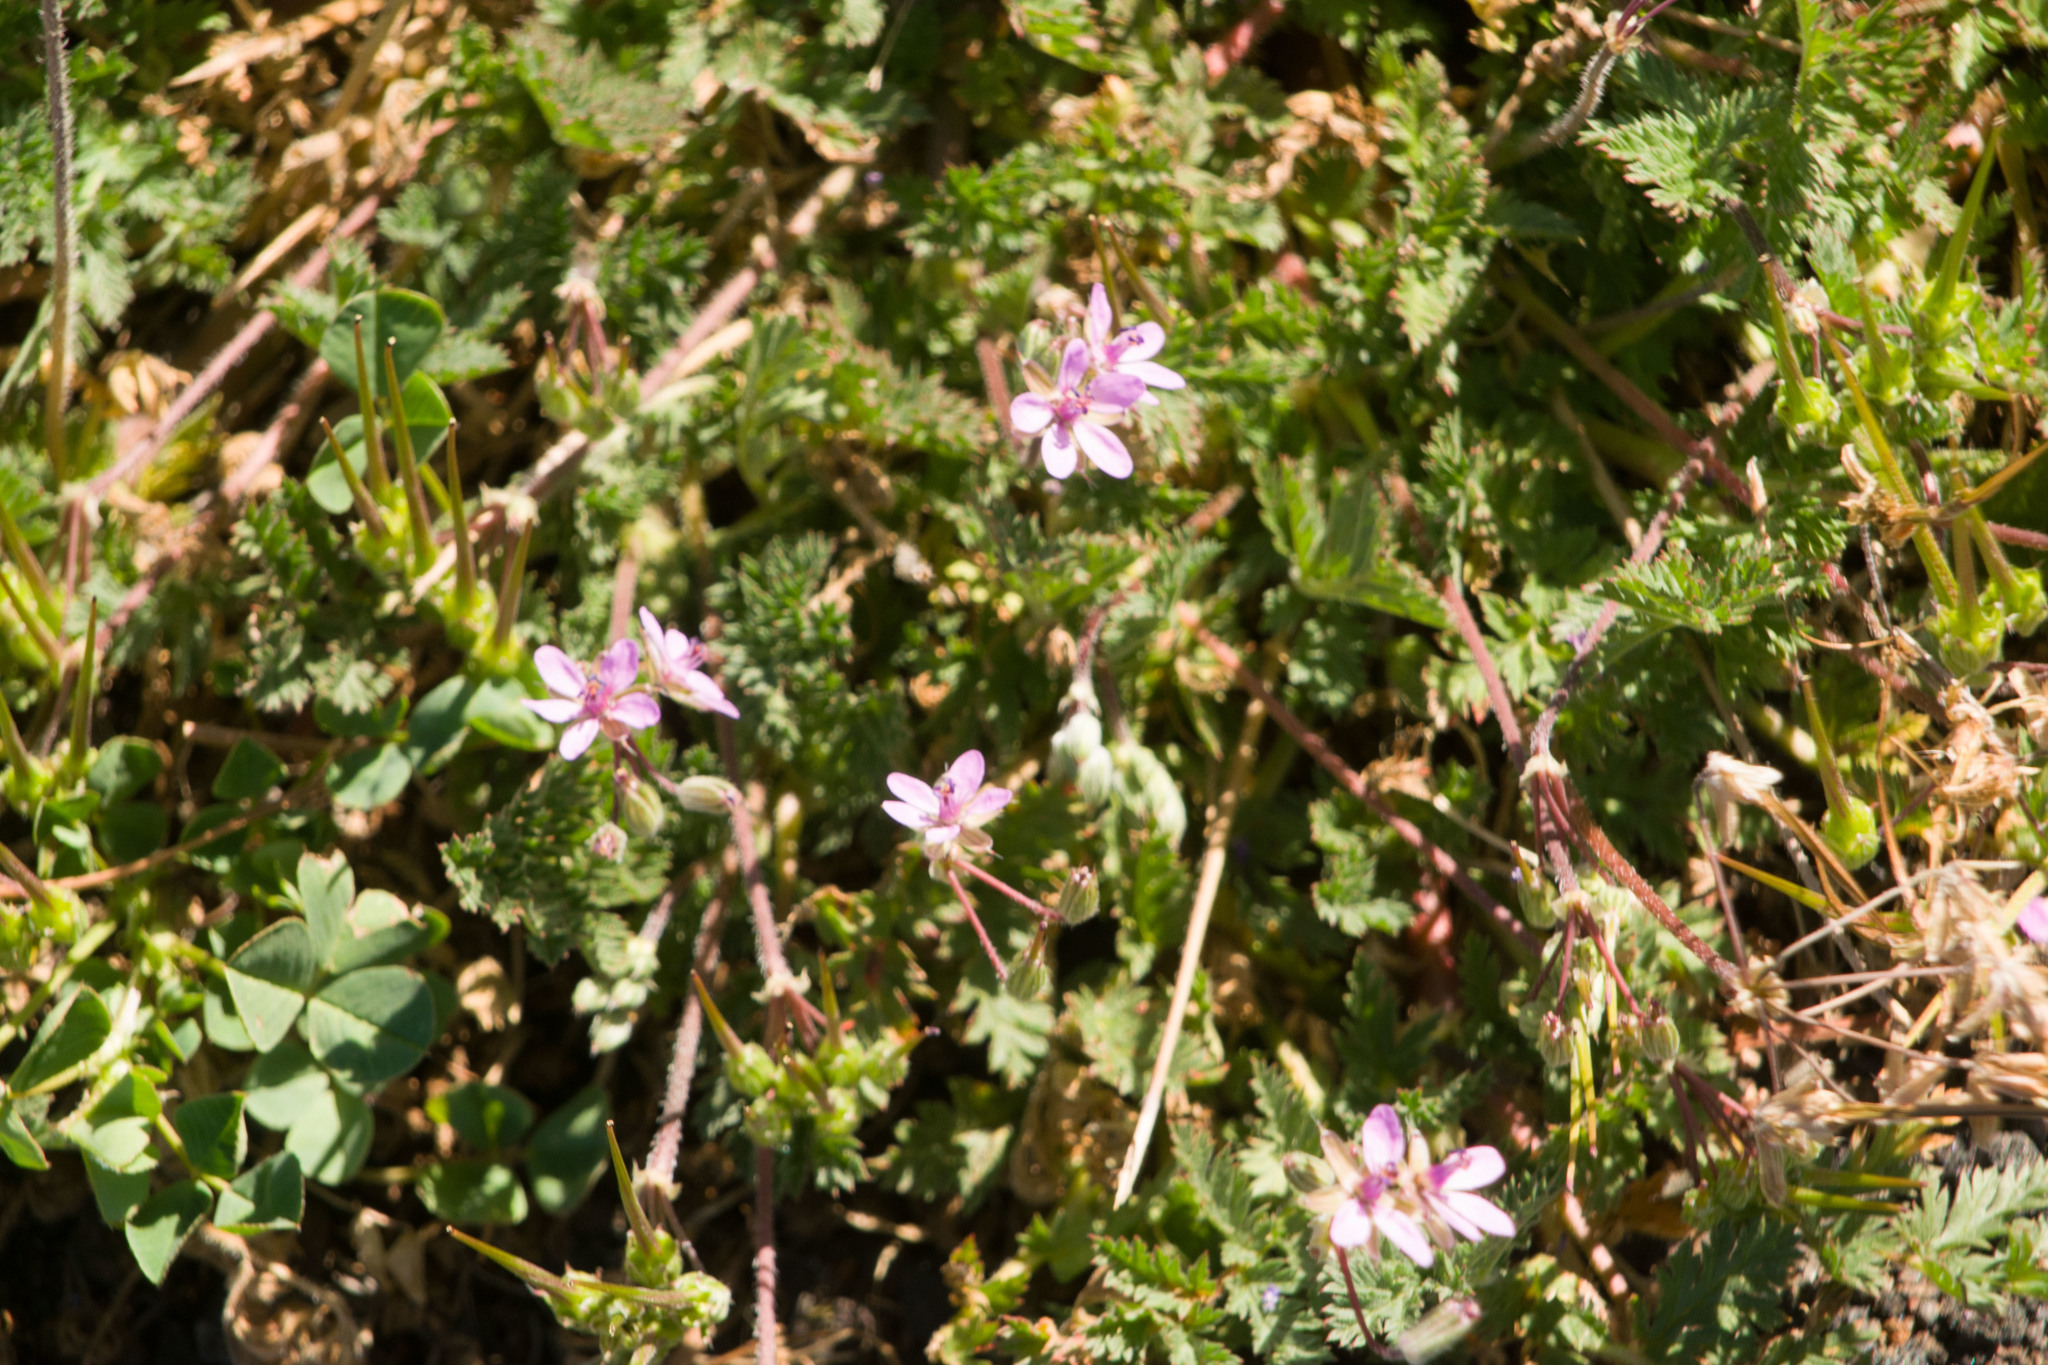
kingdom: Plantae
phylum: Tracheophyta
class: Magnoliopsida
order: Geraniales
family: Geraniaceae
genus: Erodium
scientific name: Erodium cicutarium
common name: Common stork's-bill
